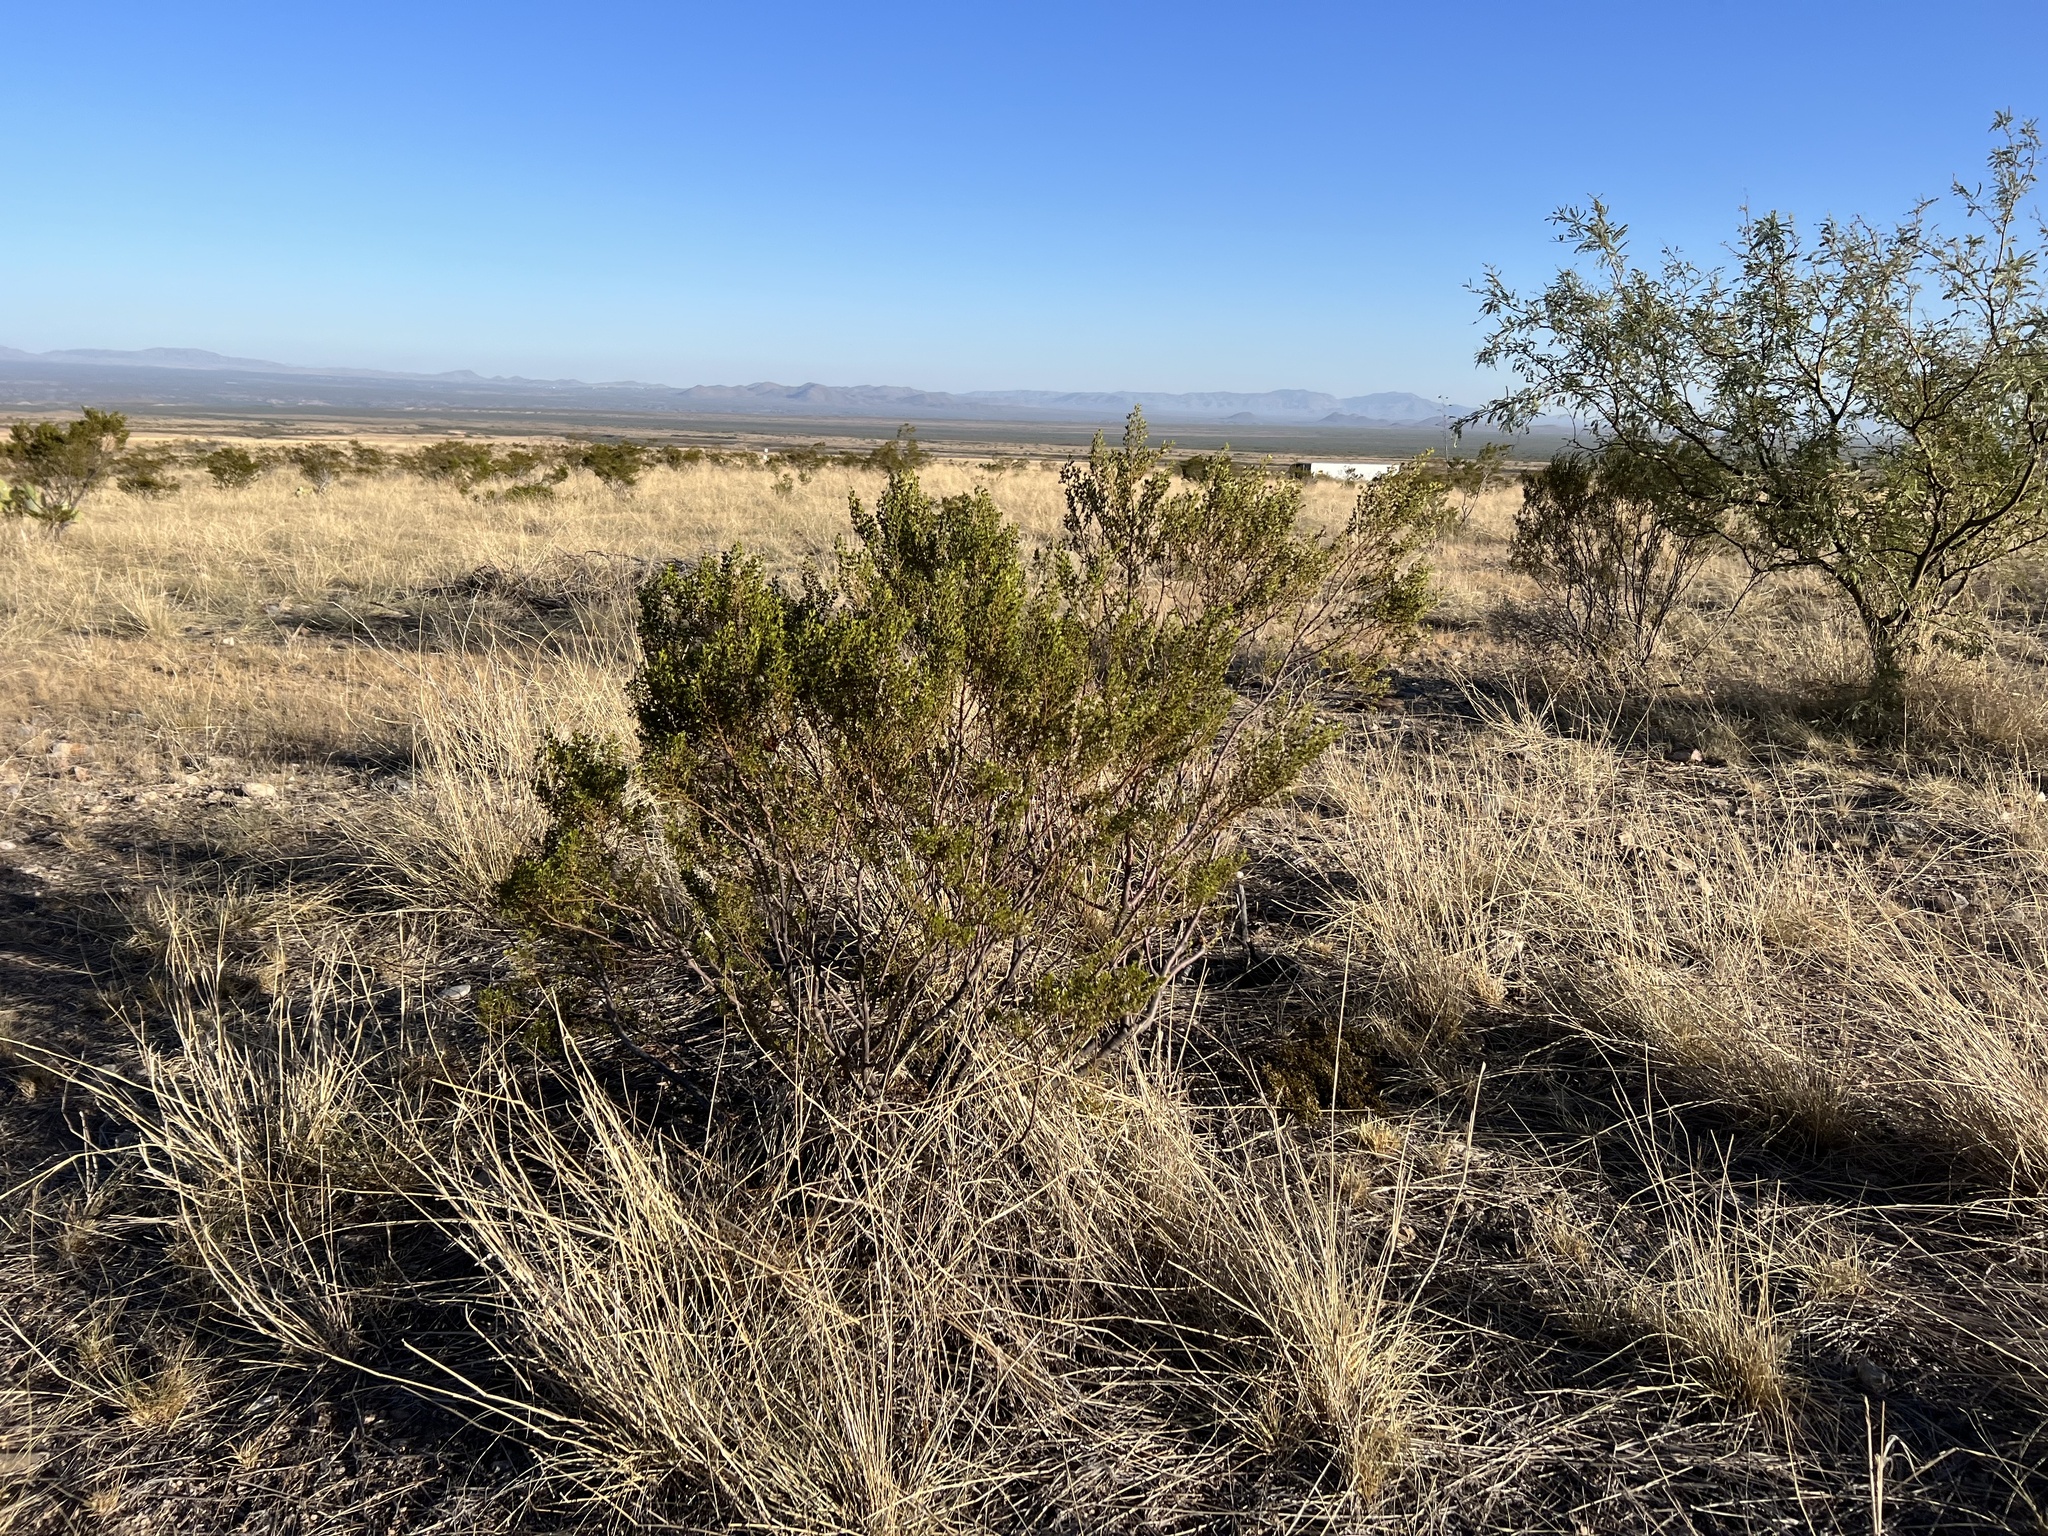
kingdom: Plantae
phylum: Tracheophyta
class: Magnoliopsida
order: Zygophyllales
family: Zygophyllaceae
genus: Larrea
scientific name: Larrea tridentata
